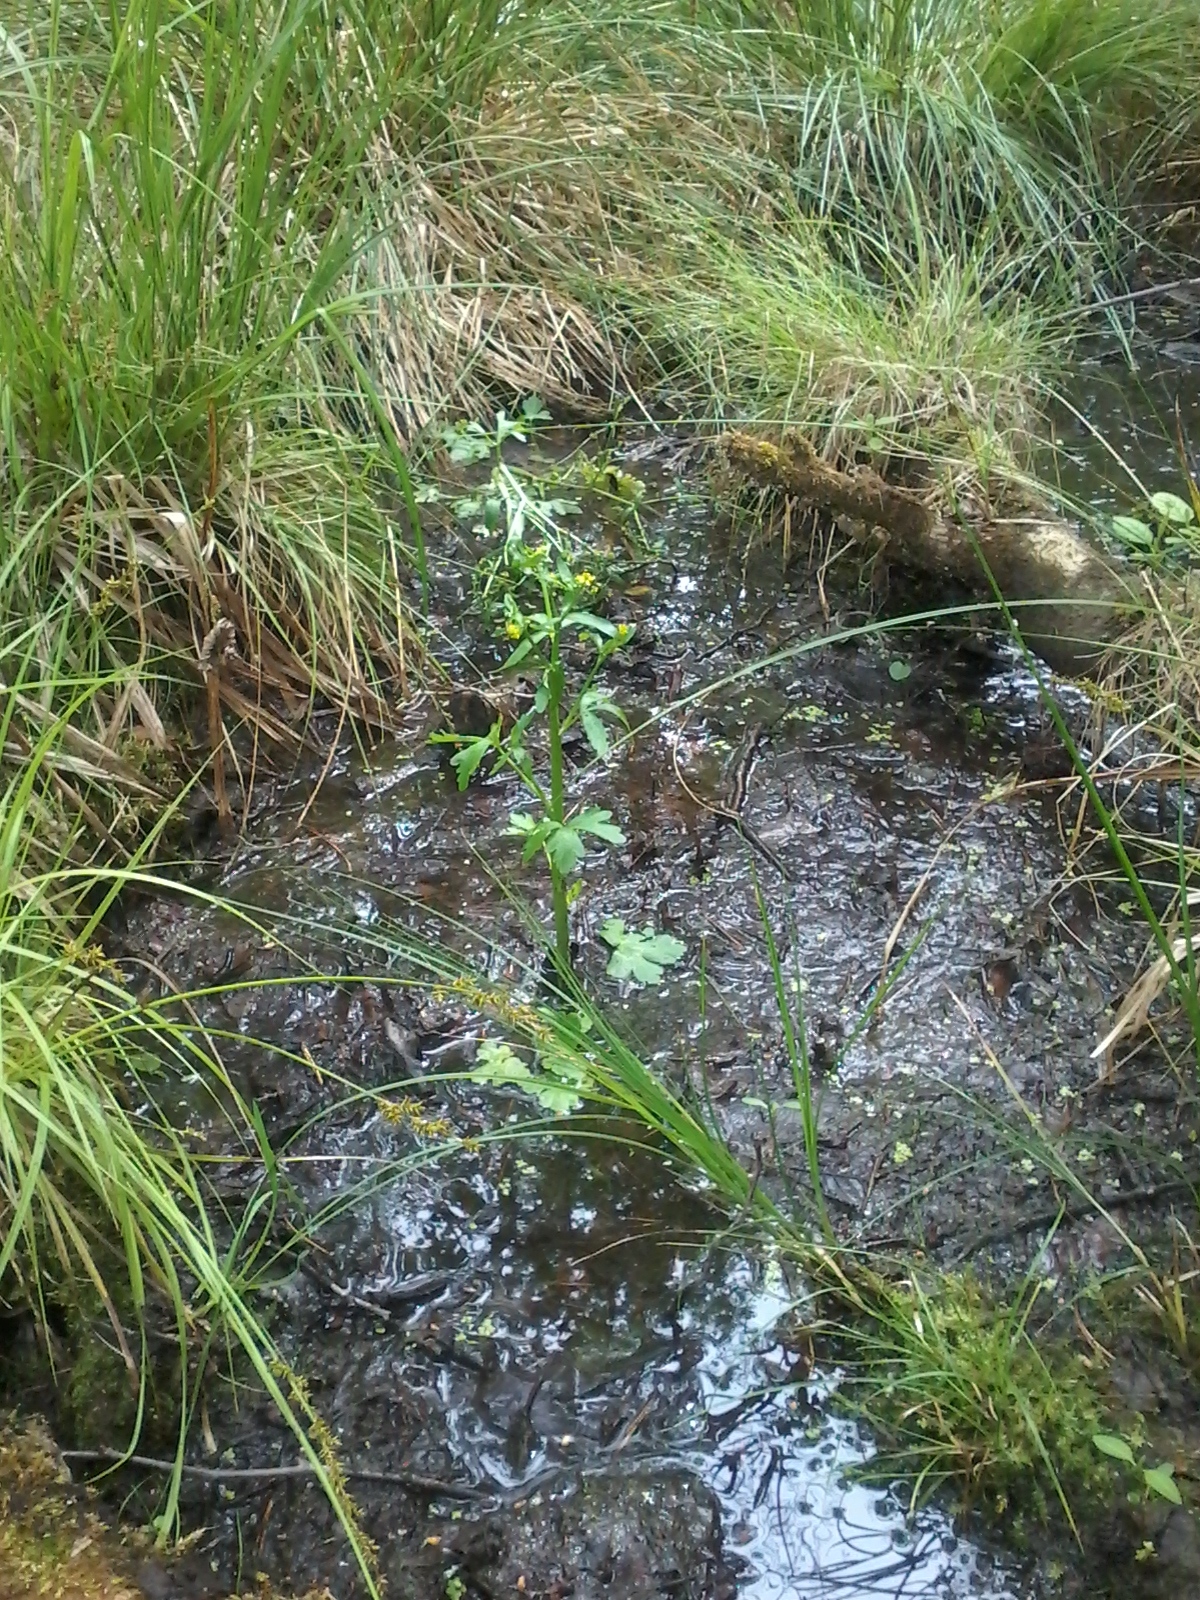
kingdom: Plantae
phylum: Tracheophyta
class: Magnoliopsida
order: Ranunculales
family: Ranunculaceae
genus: Ranunculus
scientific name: Ranunculus sceleratus
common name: Celery-leaved buttercup
